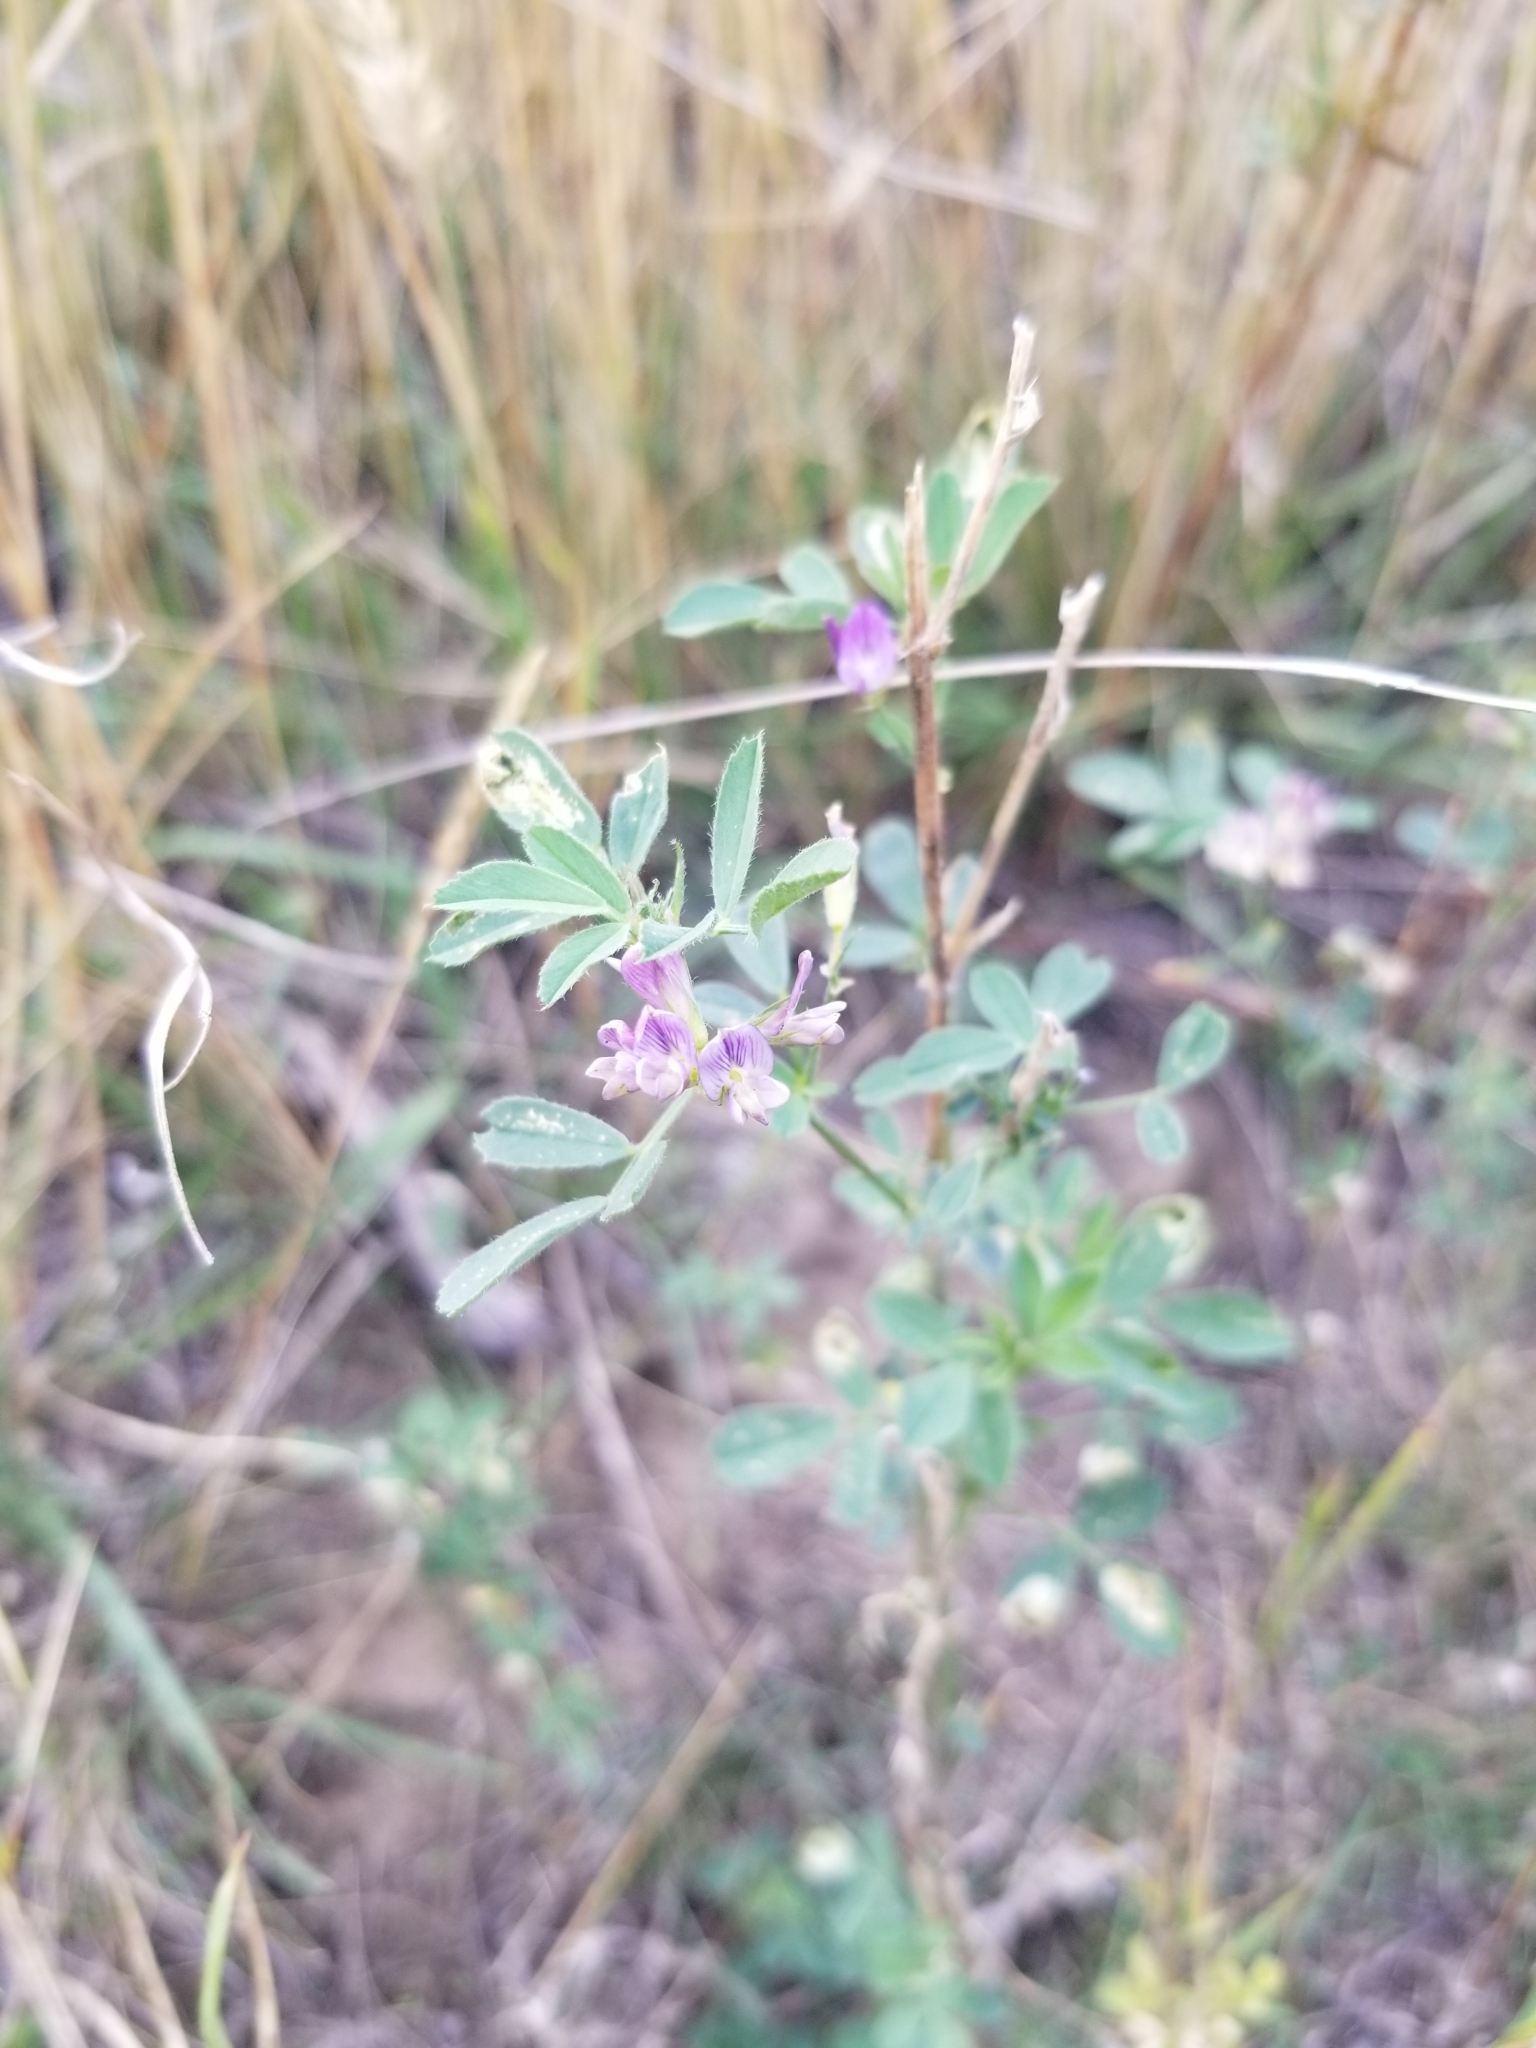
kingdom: Plantae
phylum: Tracheophyta
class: Magnoliopsida
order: Fabales
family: Fabaceae
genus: Medicago
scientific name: Medicago sativa
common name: Alfalfa
